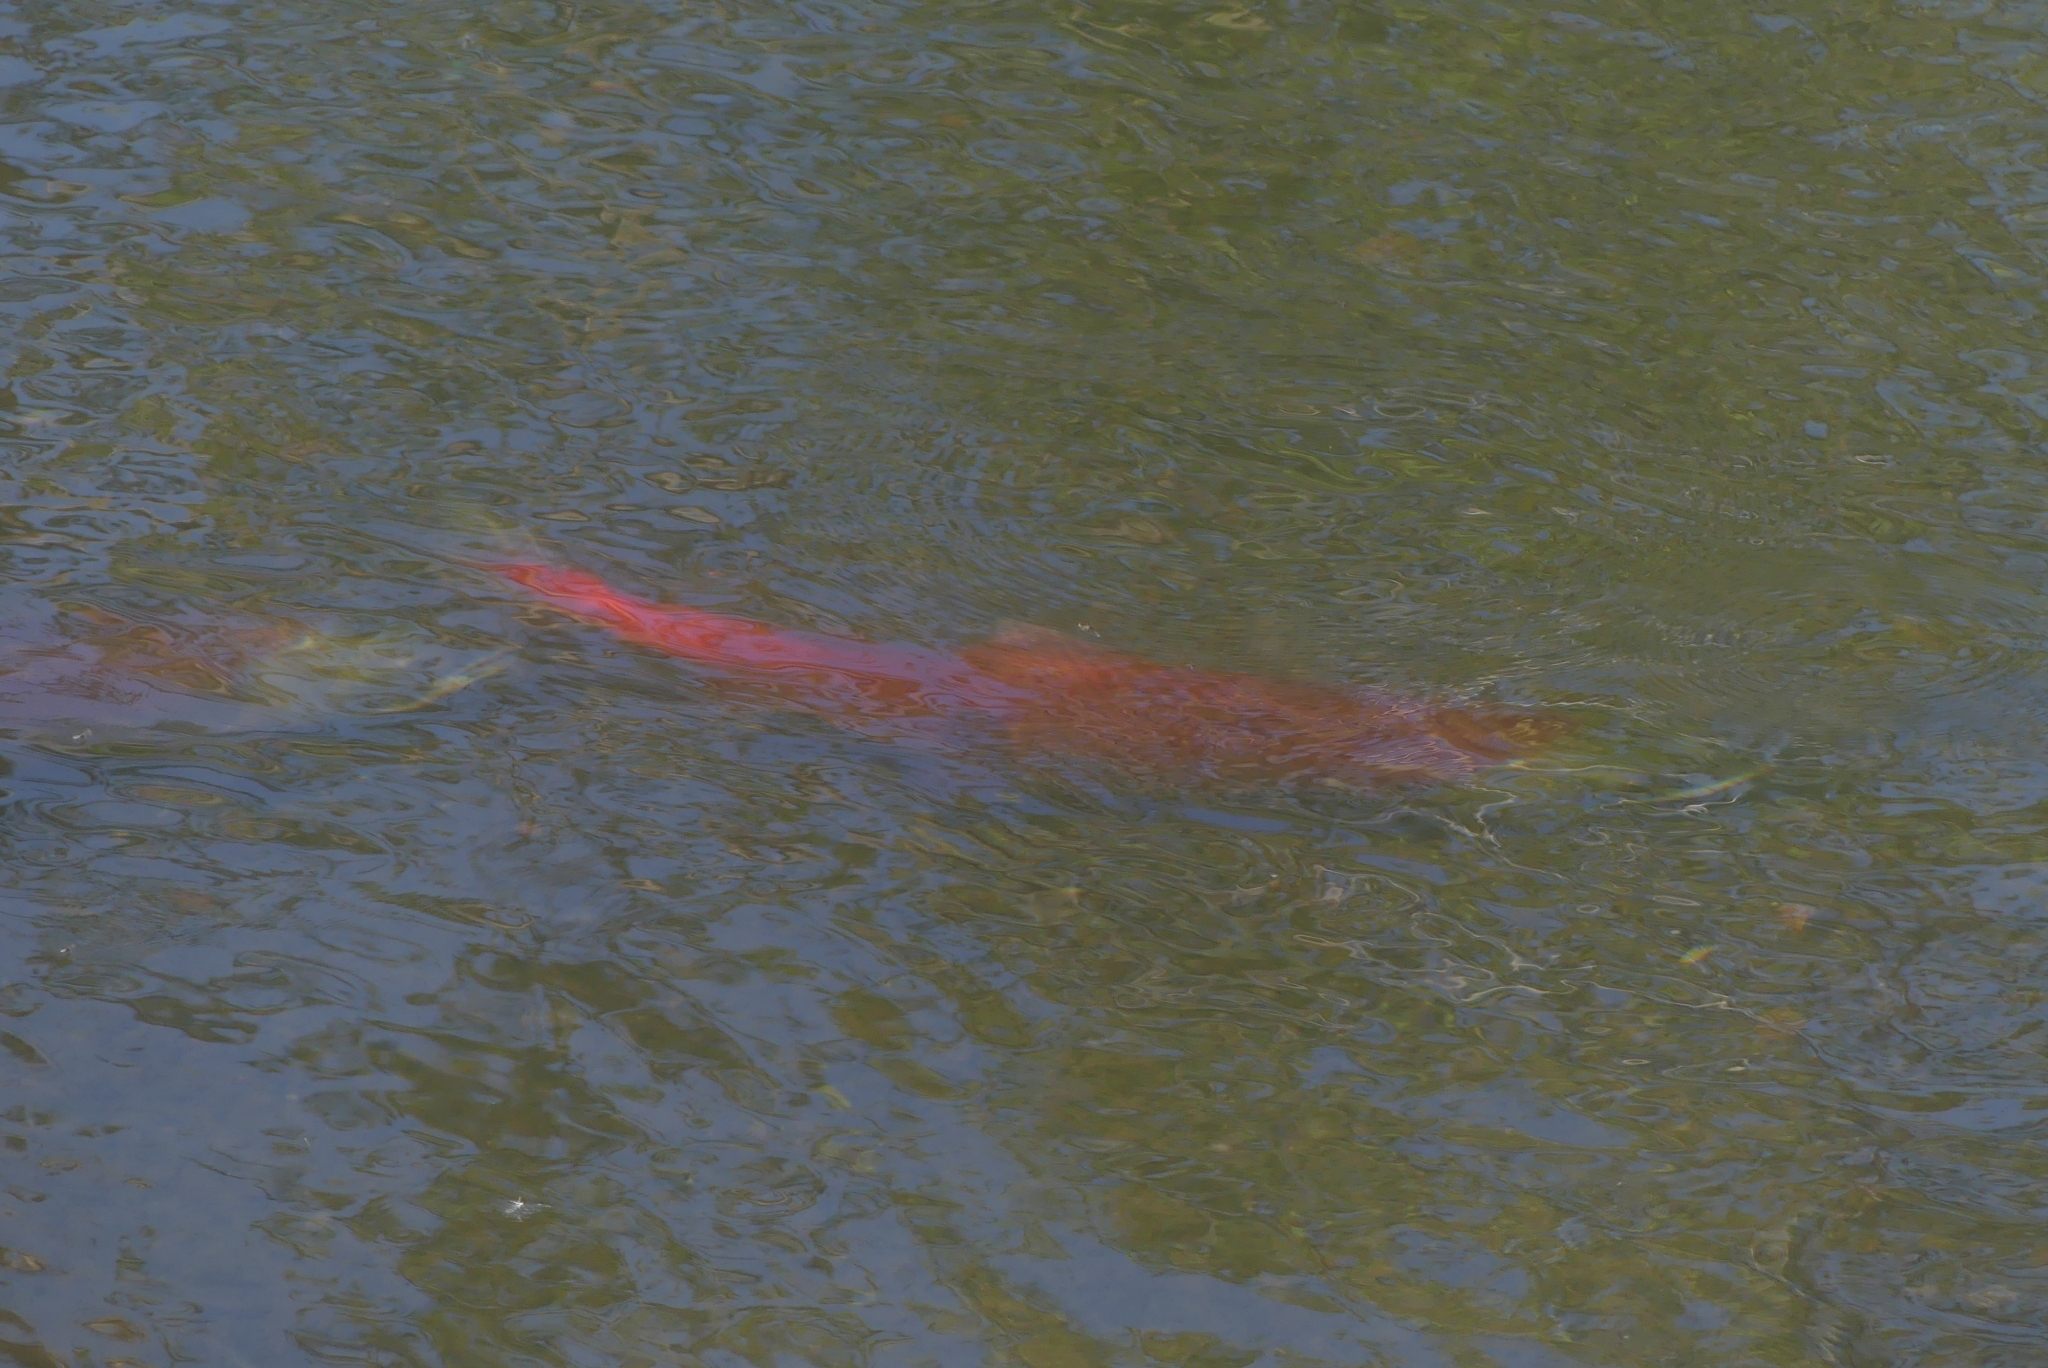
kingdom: Animalia
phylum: Chordata
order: Salmoniformes
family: Salmonidae
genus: Oncorhynchus
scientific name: Oncorhynchus nerka
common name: Sockeye salmon
